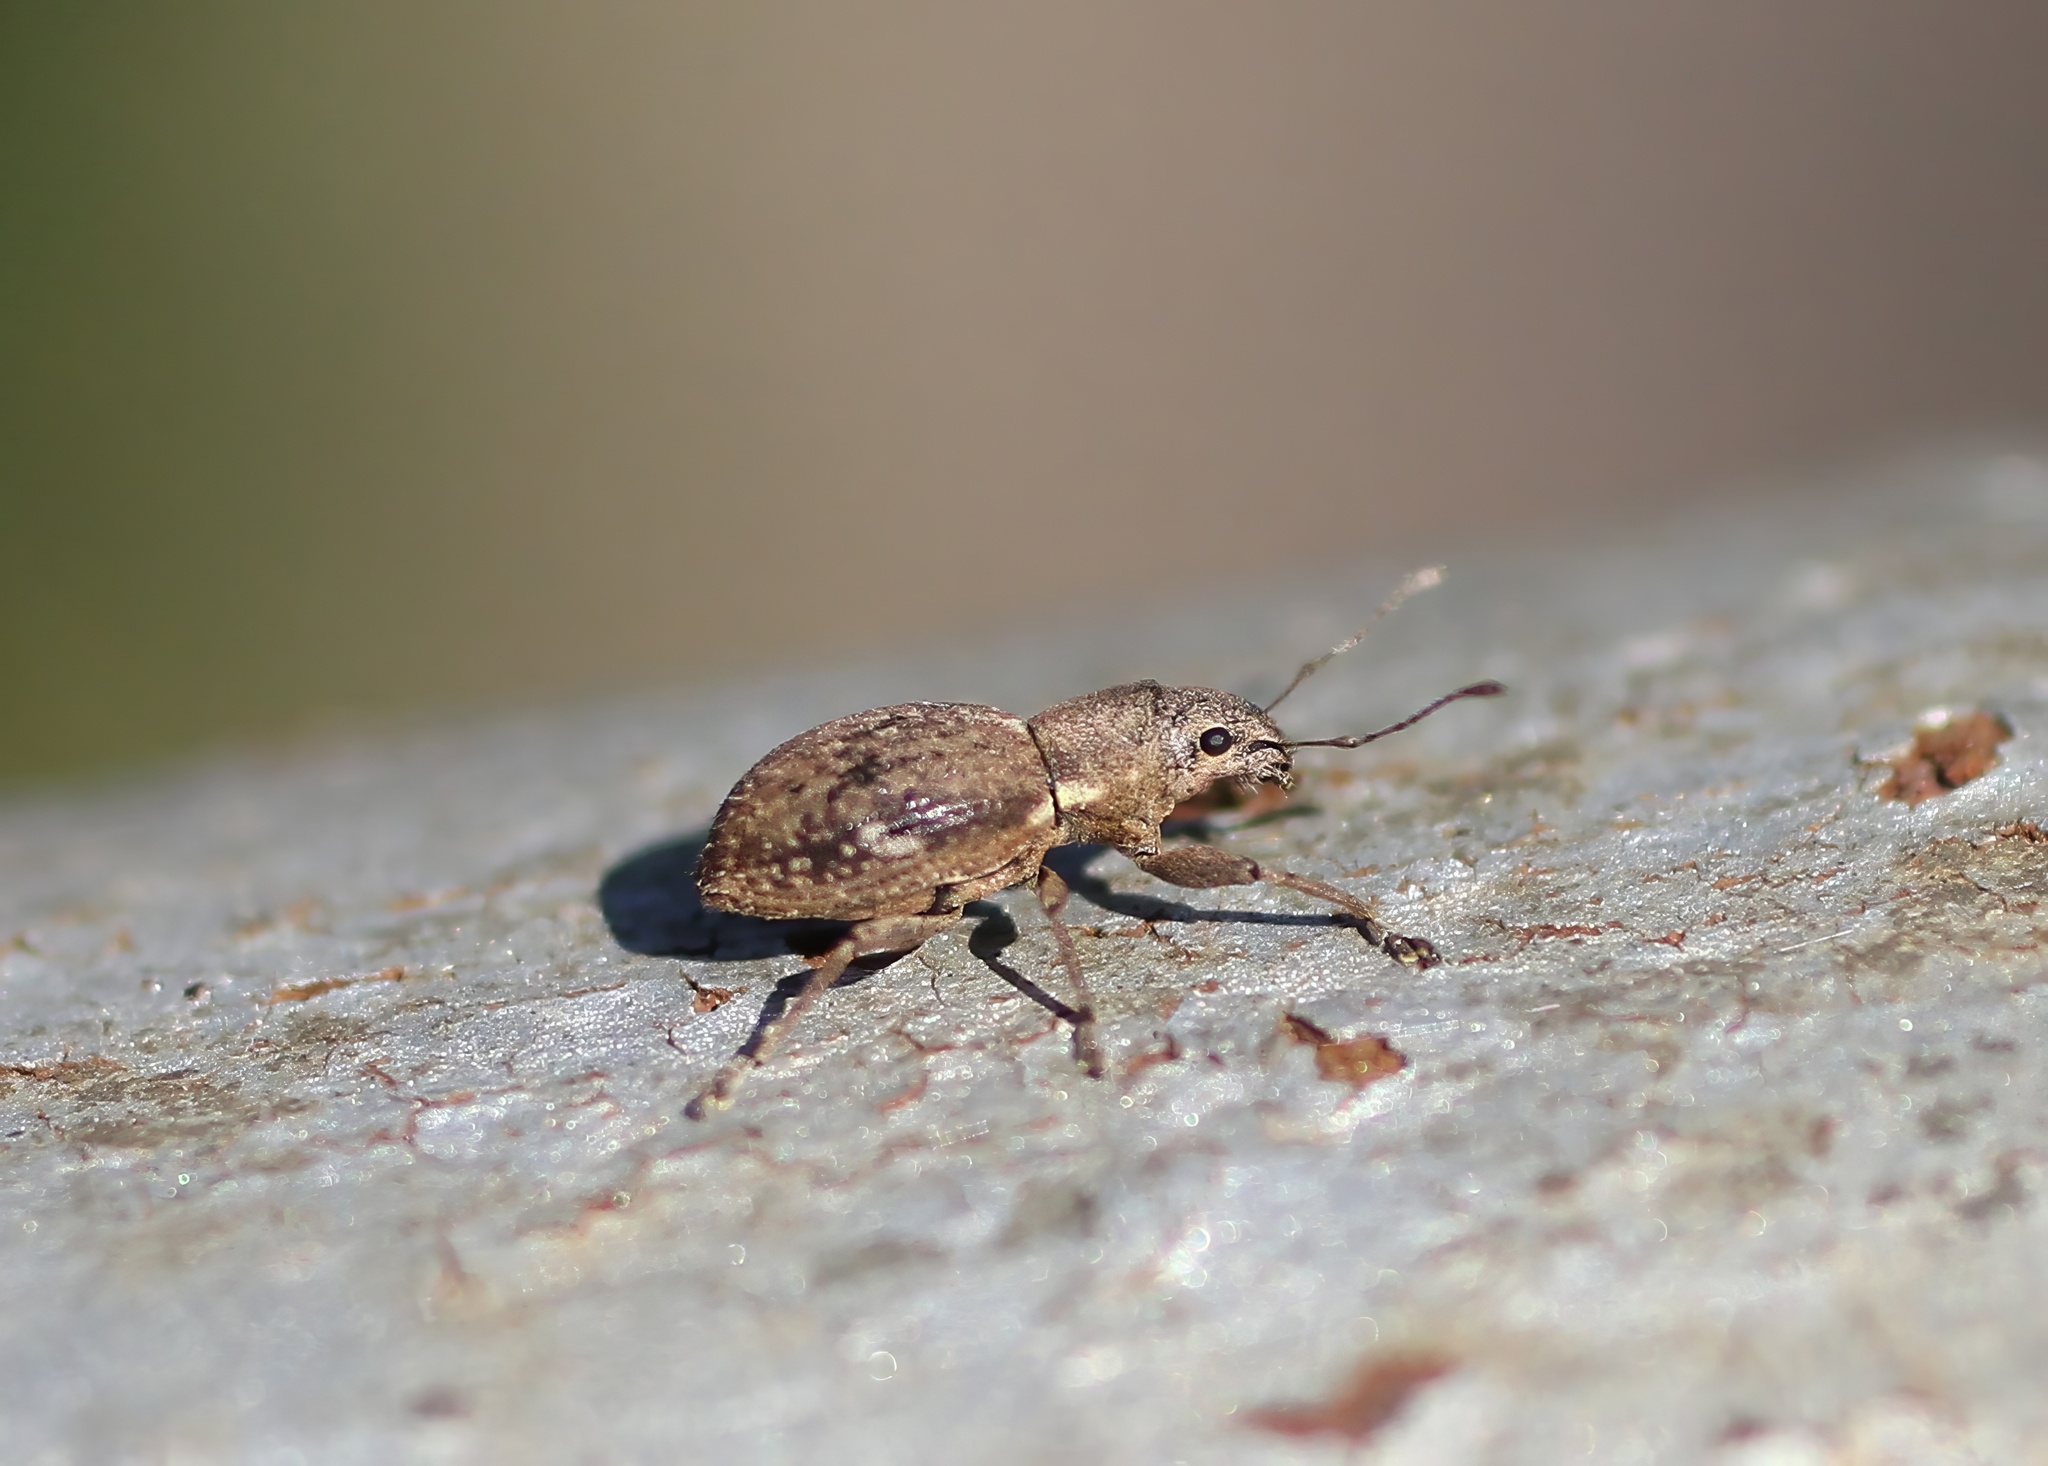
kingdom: Animalia
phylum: Arthropoda
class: Insecta
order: Coleoptera
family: Curculionidae
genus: Naupactus
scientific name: Naupactus cervinus
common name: Fuller rose beetle
